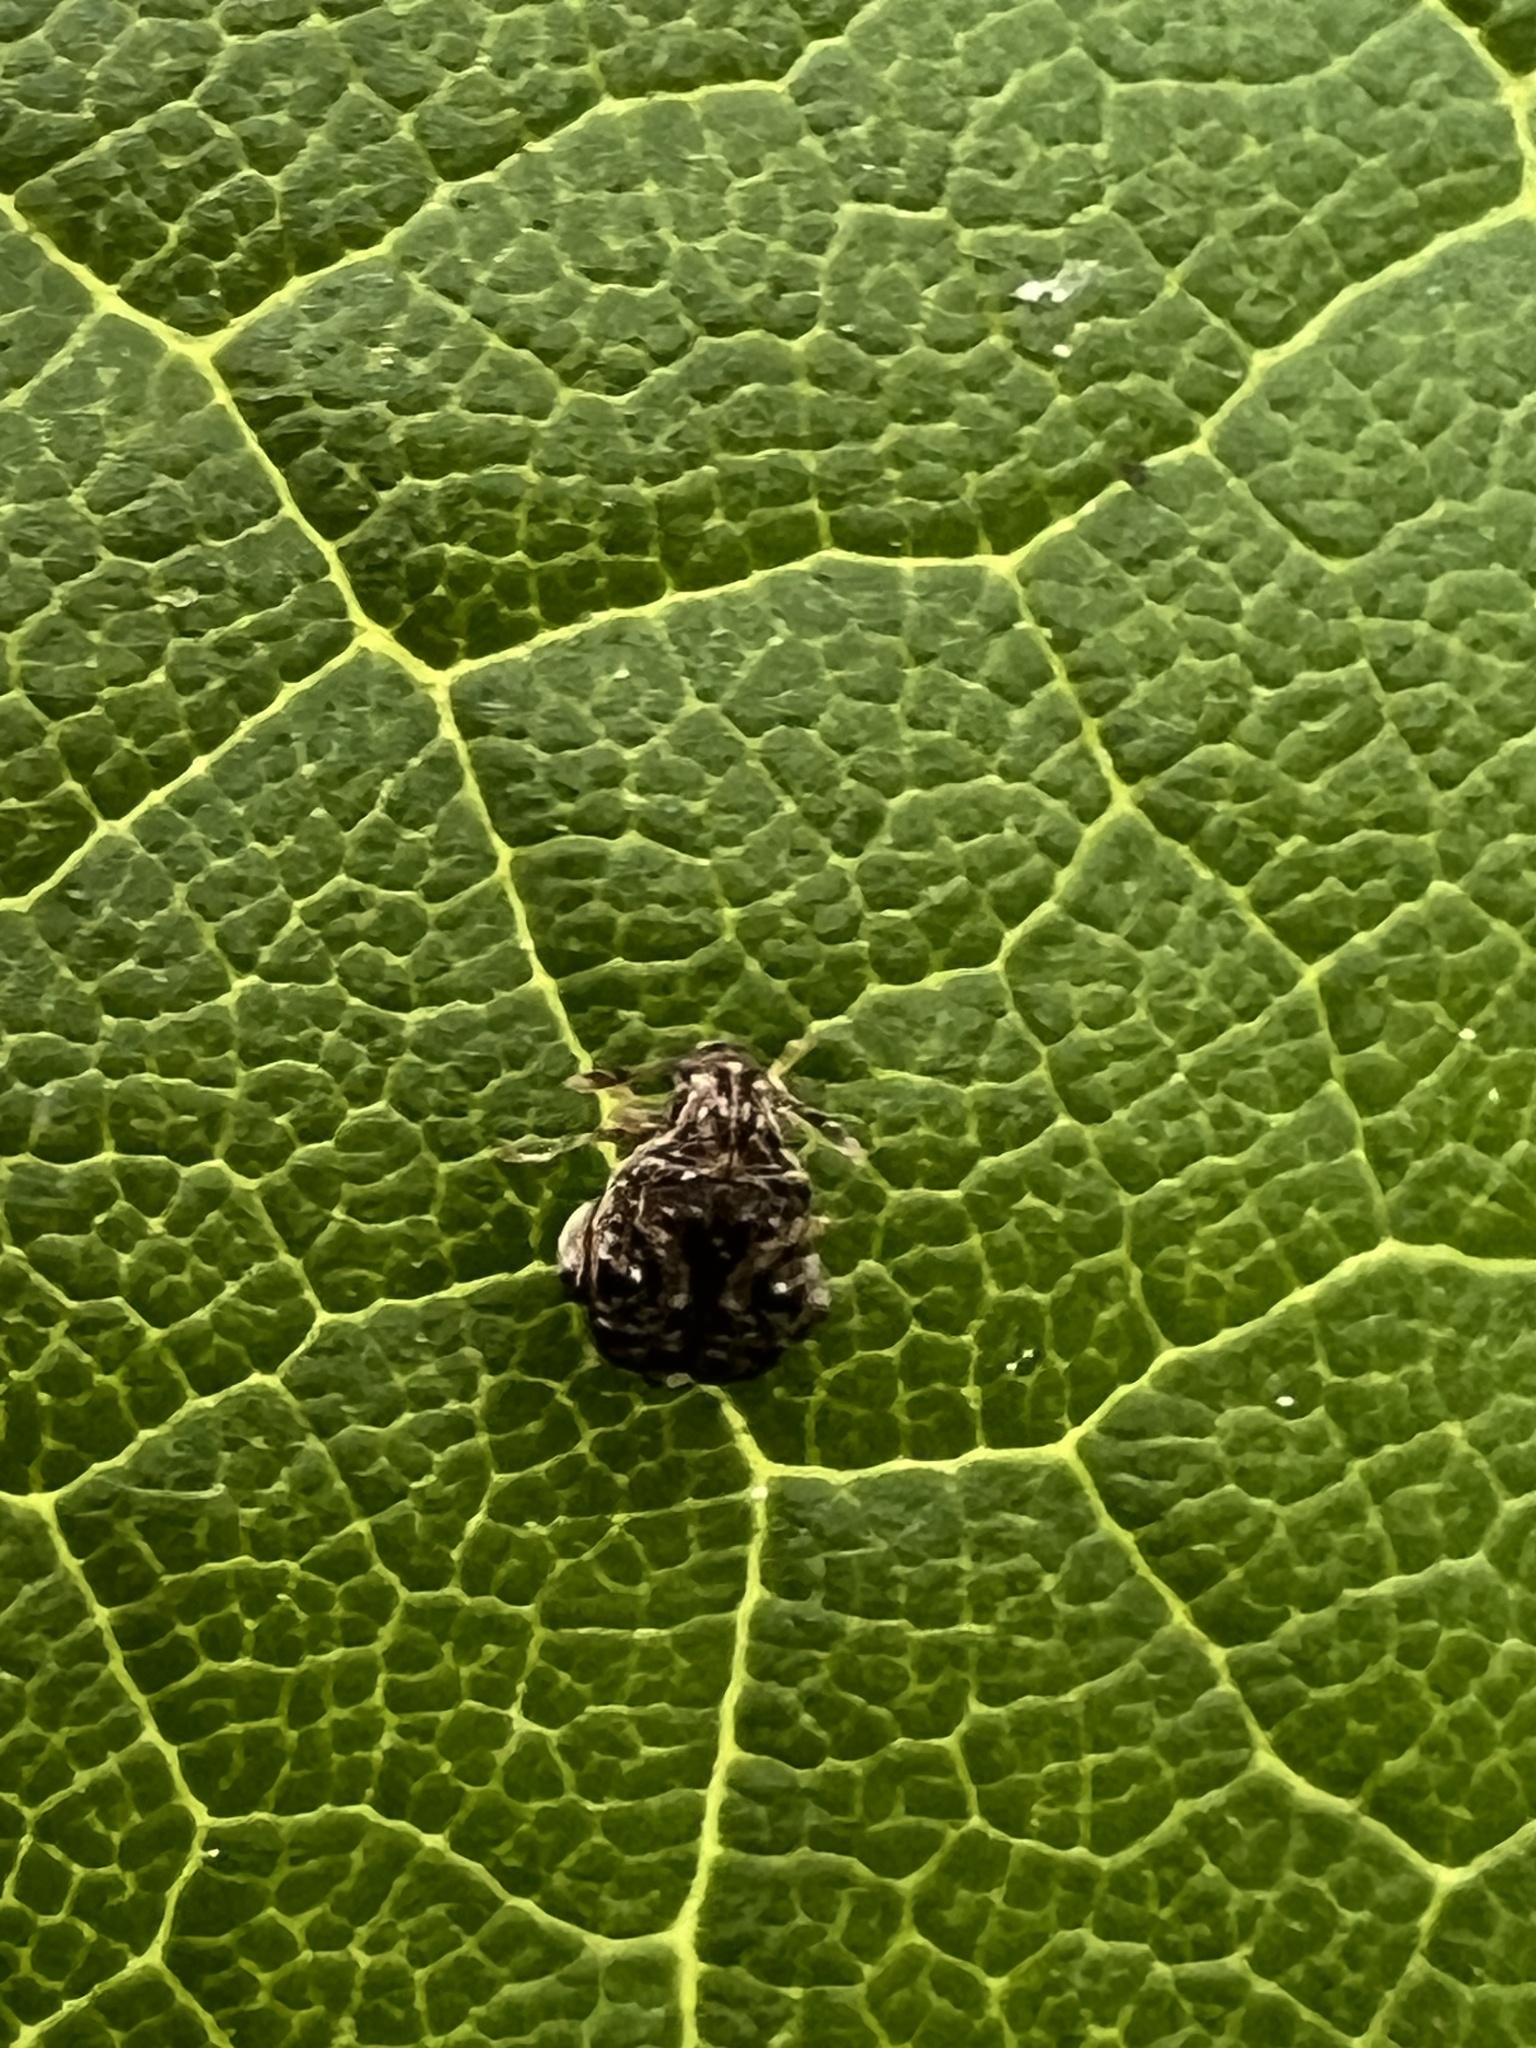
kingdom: Animalia
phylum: Arthropoda
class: Insecta
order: Coleoptera
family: Chrysomelidae
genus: Gibbobruchus
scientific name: Gibbobruchus mimus
